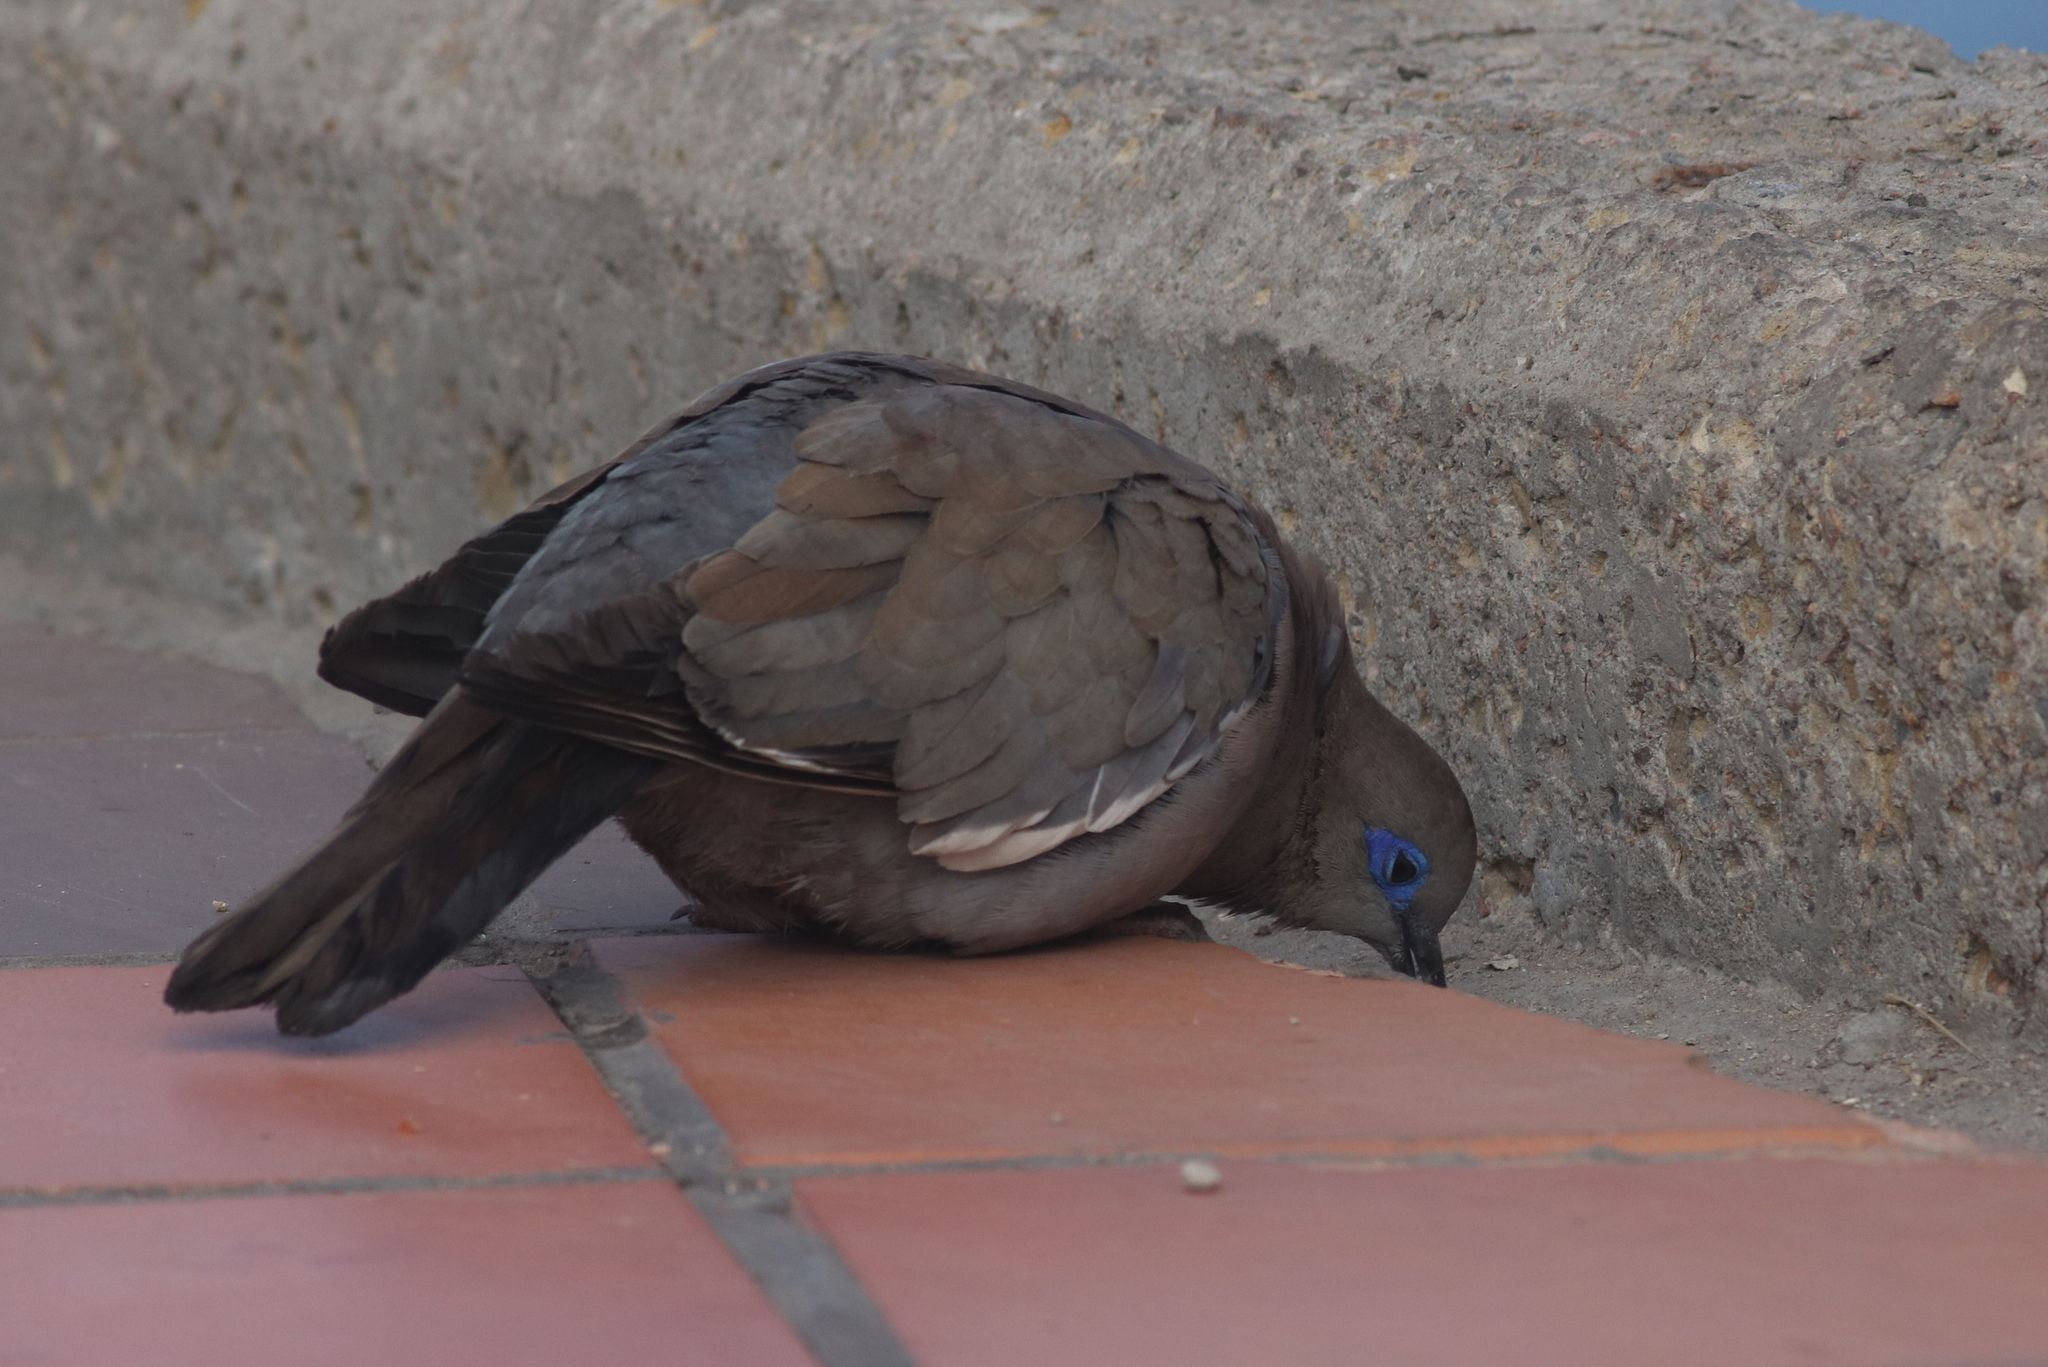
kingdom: Animalia
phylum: Chordata
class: Aves
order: Columbiformes
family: Columbidae
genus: Zenaida
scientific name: Zenaida meloda
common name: West peruvian dove
